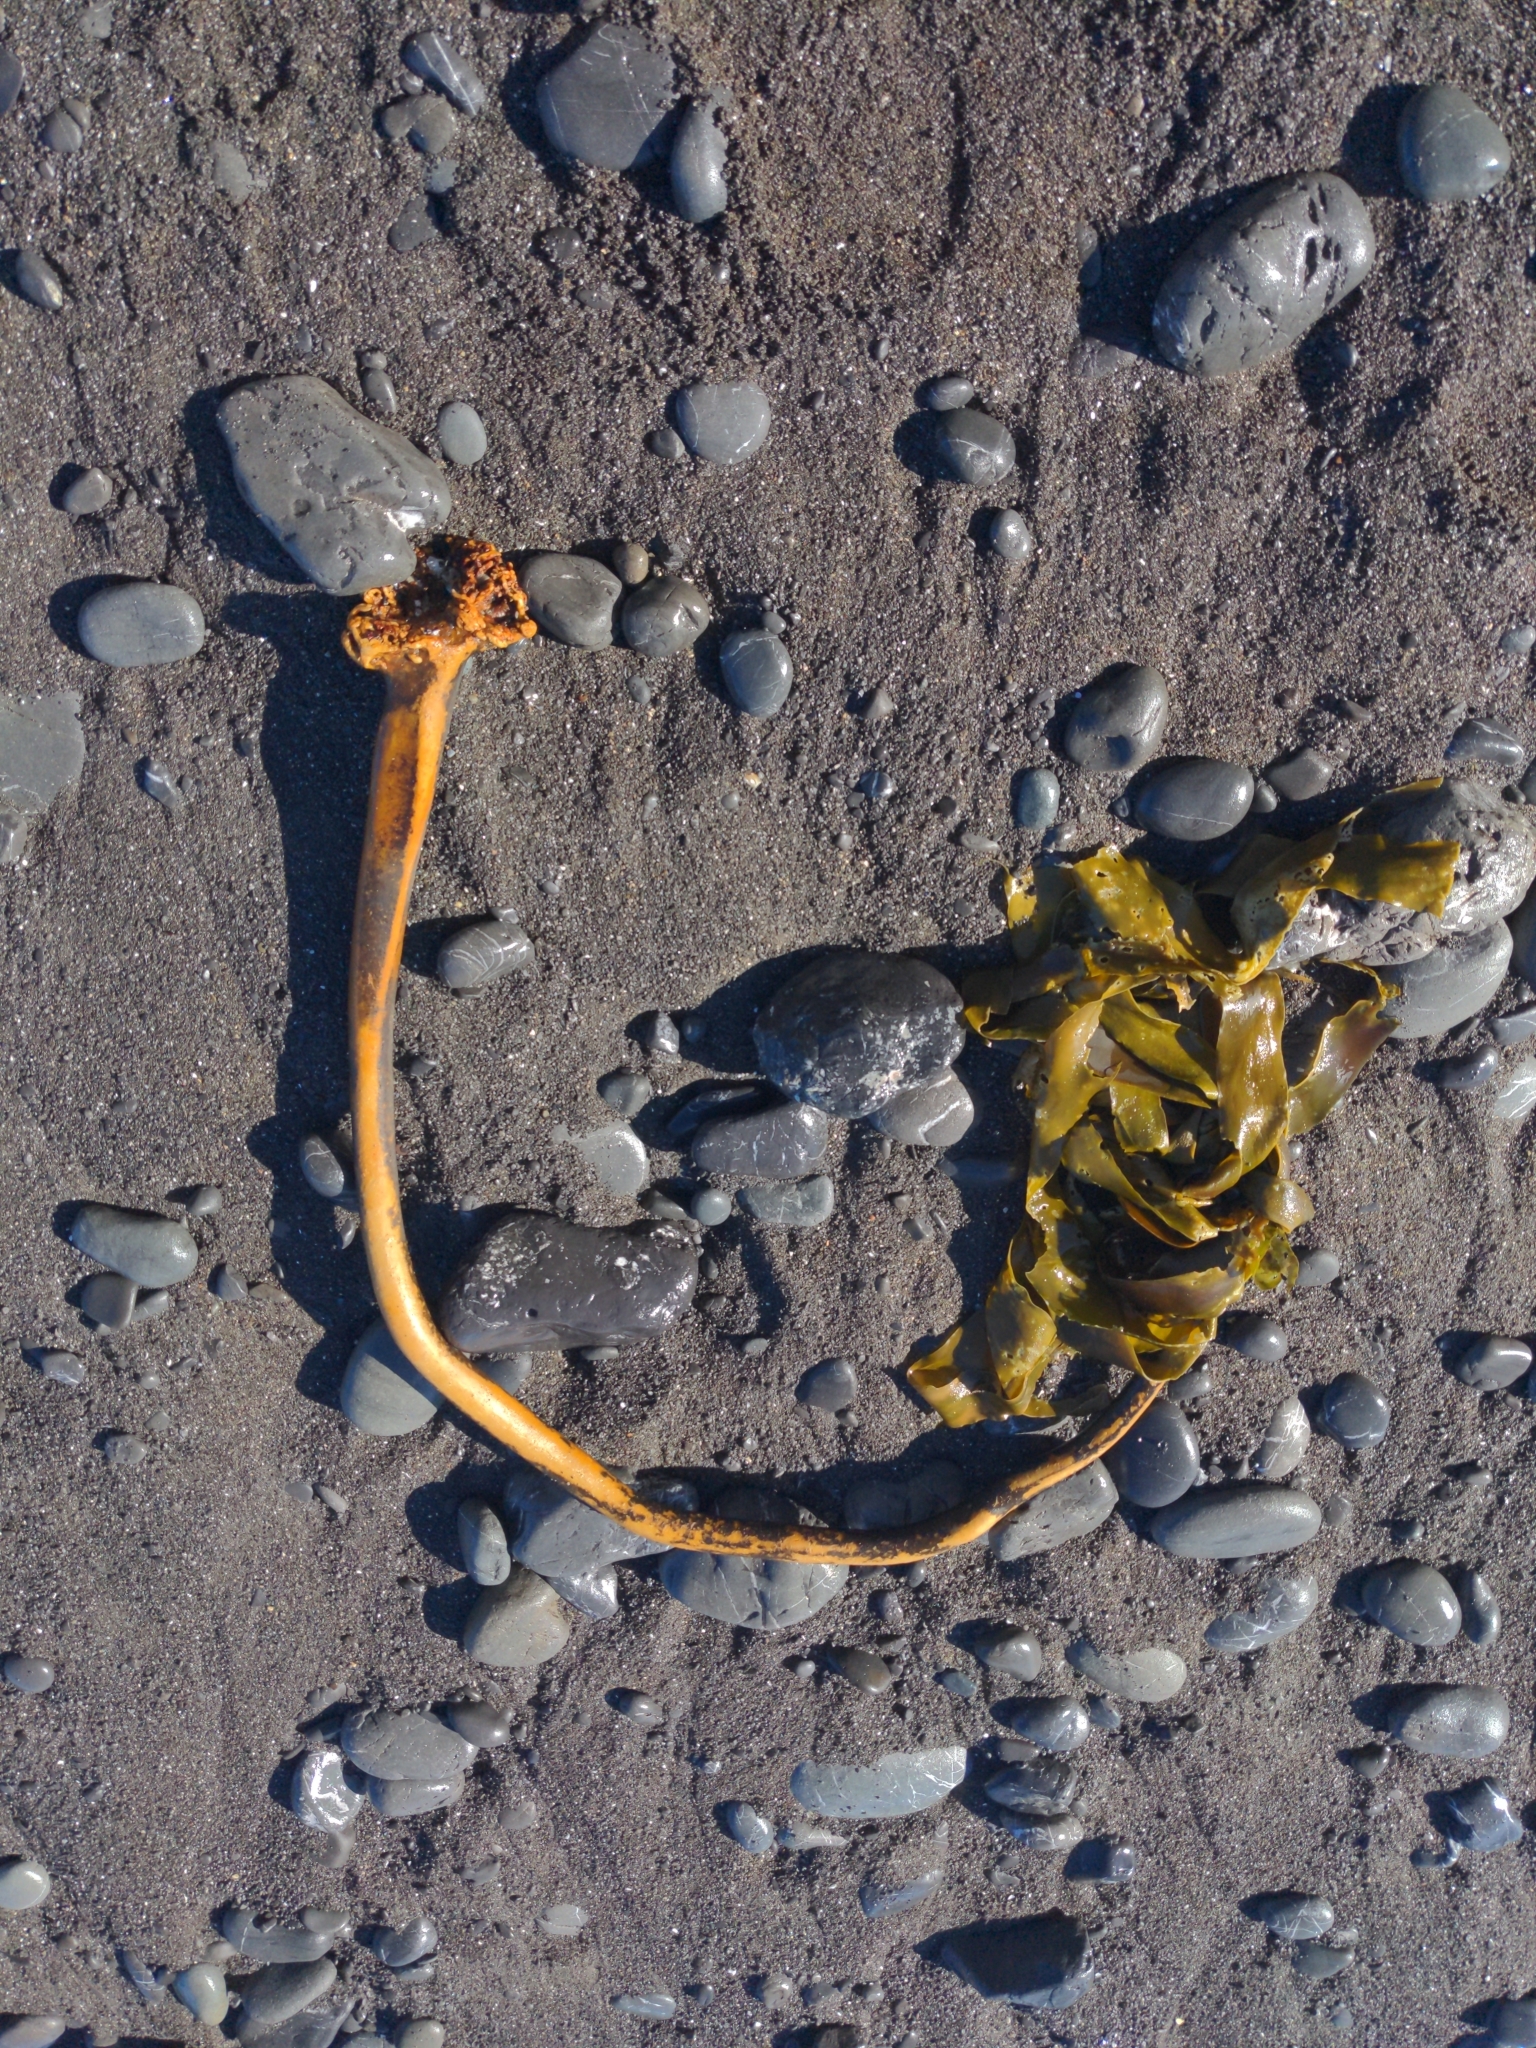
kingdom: Chromista
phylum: Ochrophyta
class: Phaeophyceae
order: Laminariales
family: Alariaceae
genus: Pterygophora
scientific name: Pterygophora californica
